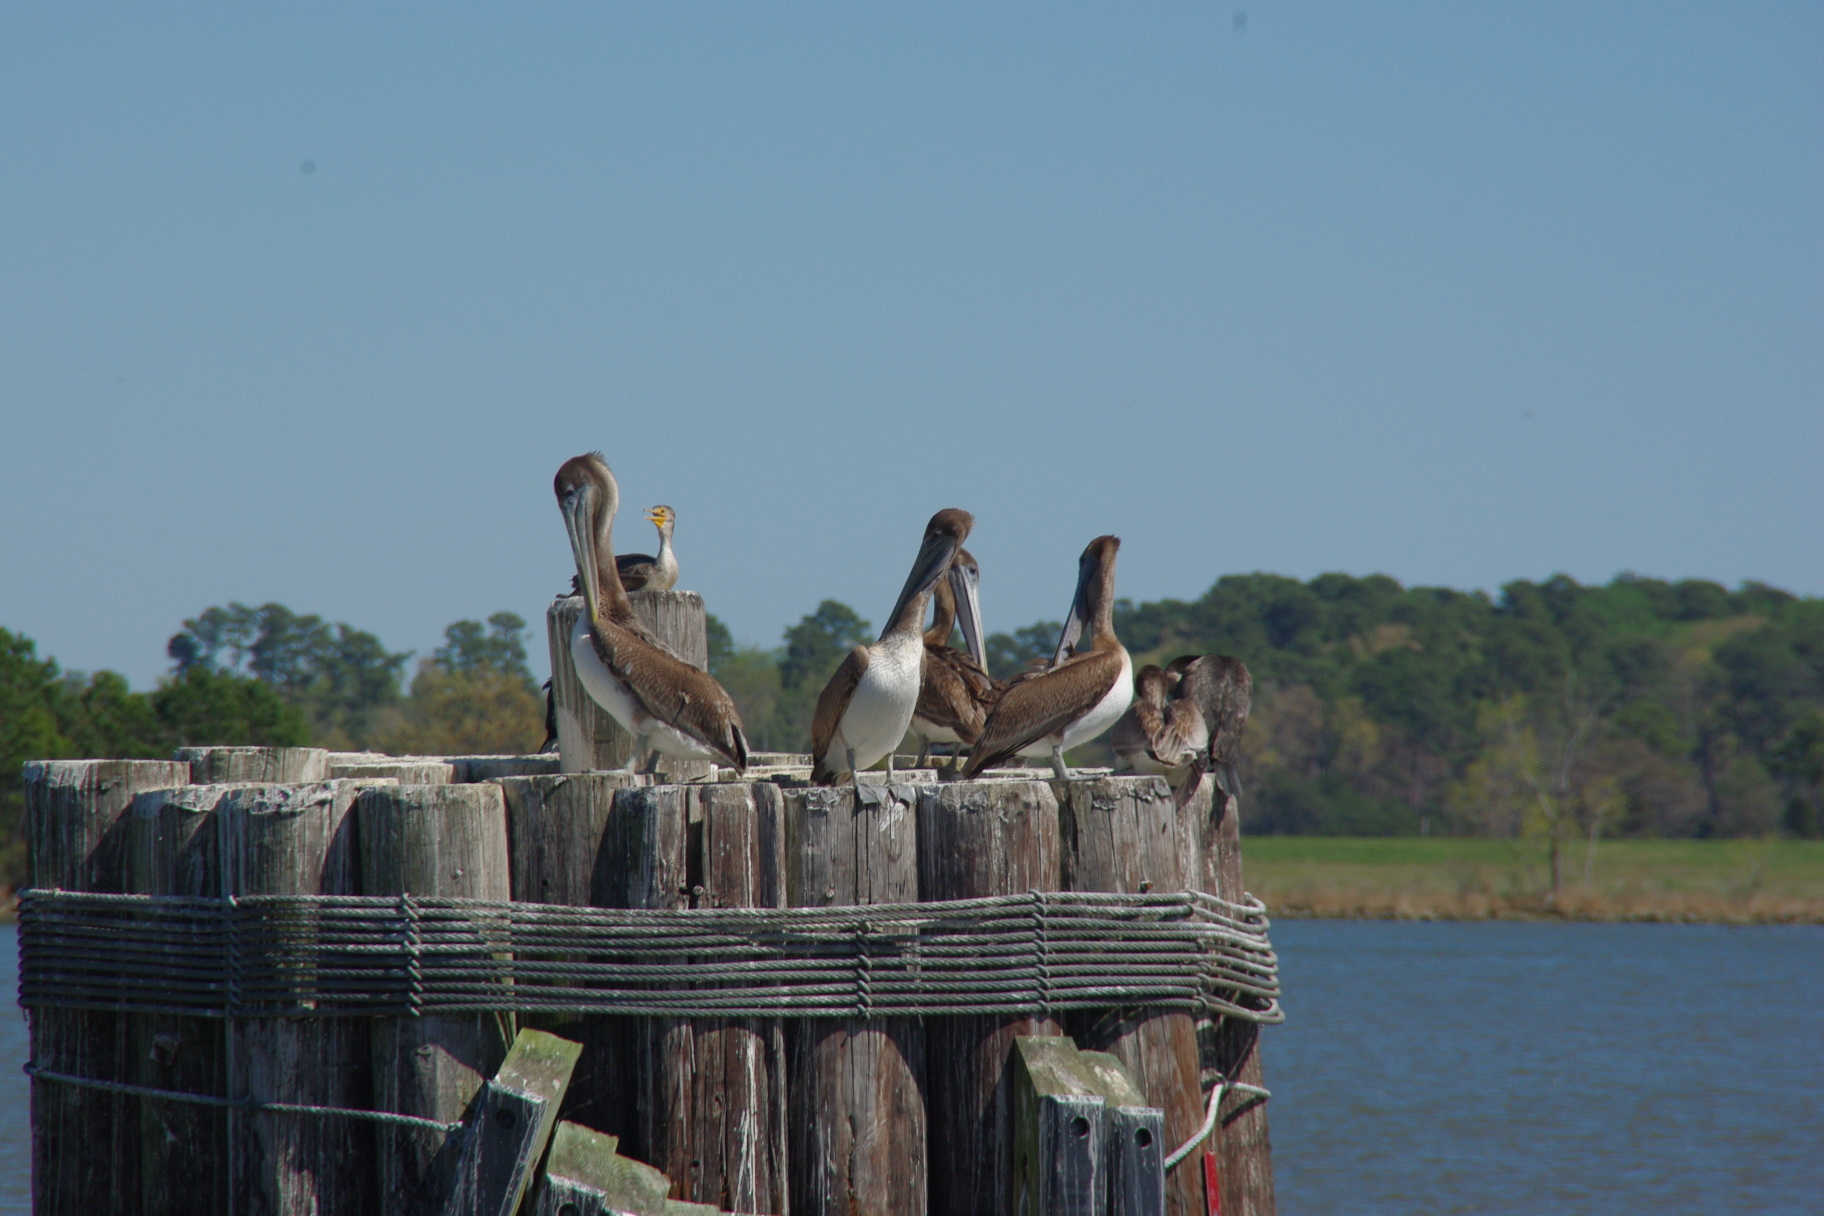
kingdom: Animalia
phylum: Chordata
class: Aves
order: Pelecaniformes
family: Pelecanidae
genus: Pelecanus
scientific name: Pelecanus occidentalis
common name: Brown pelican
